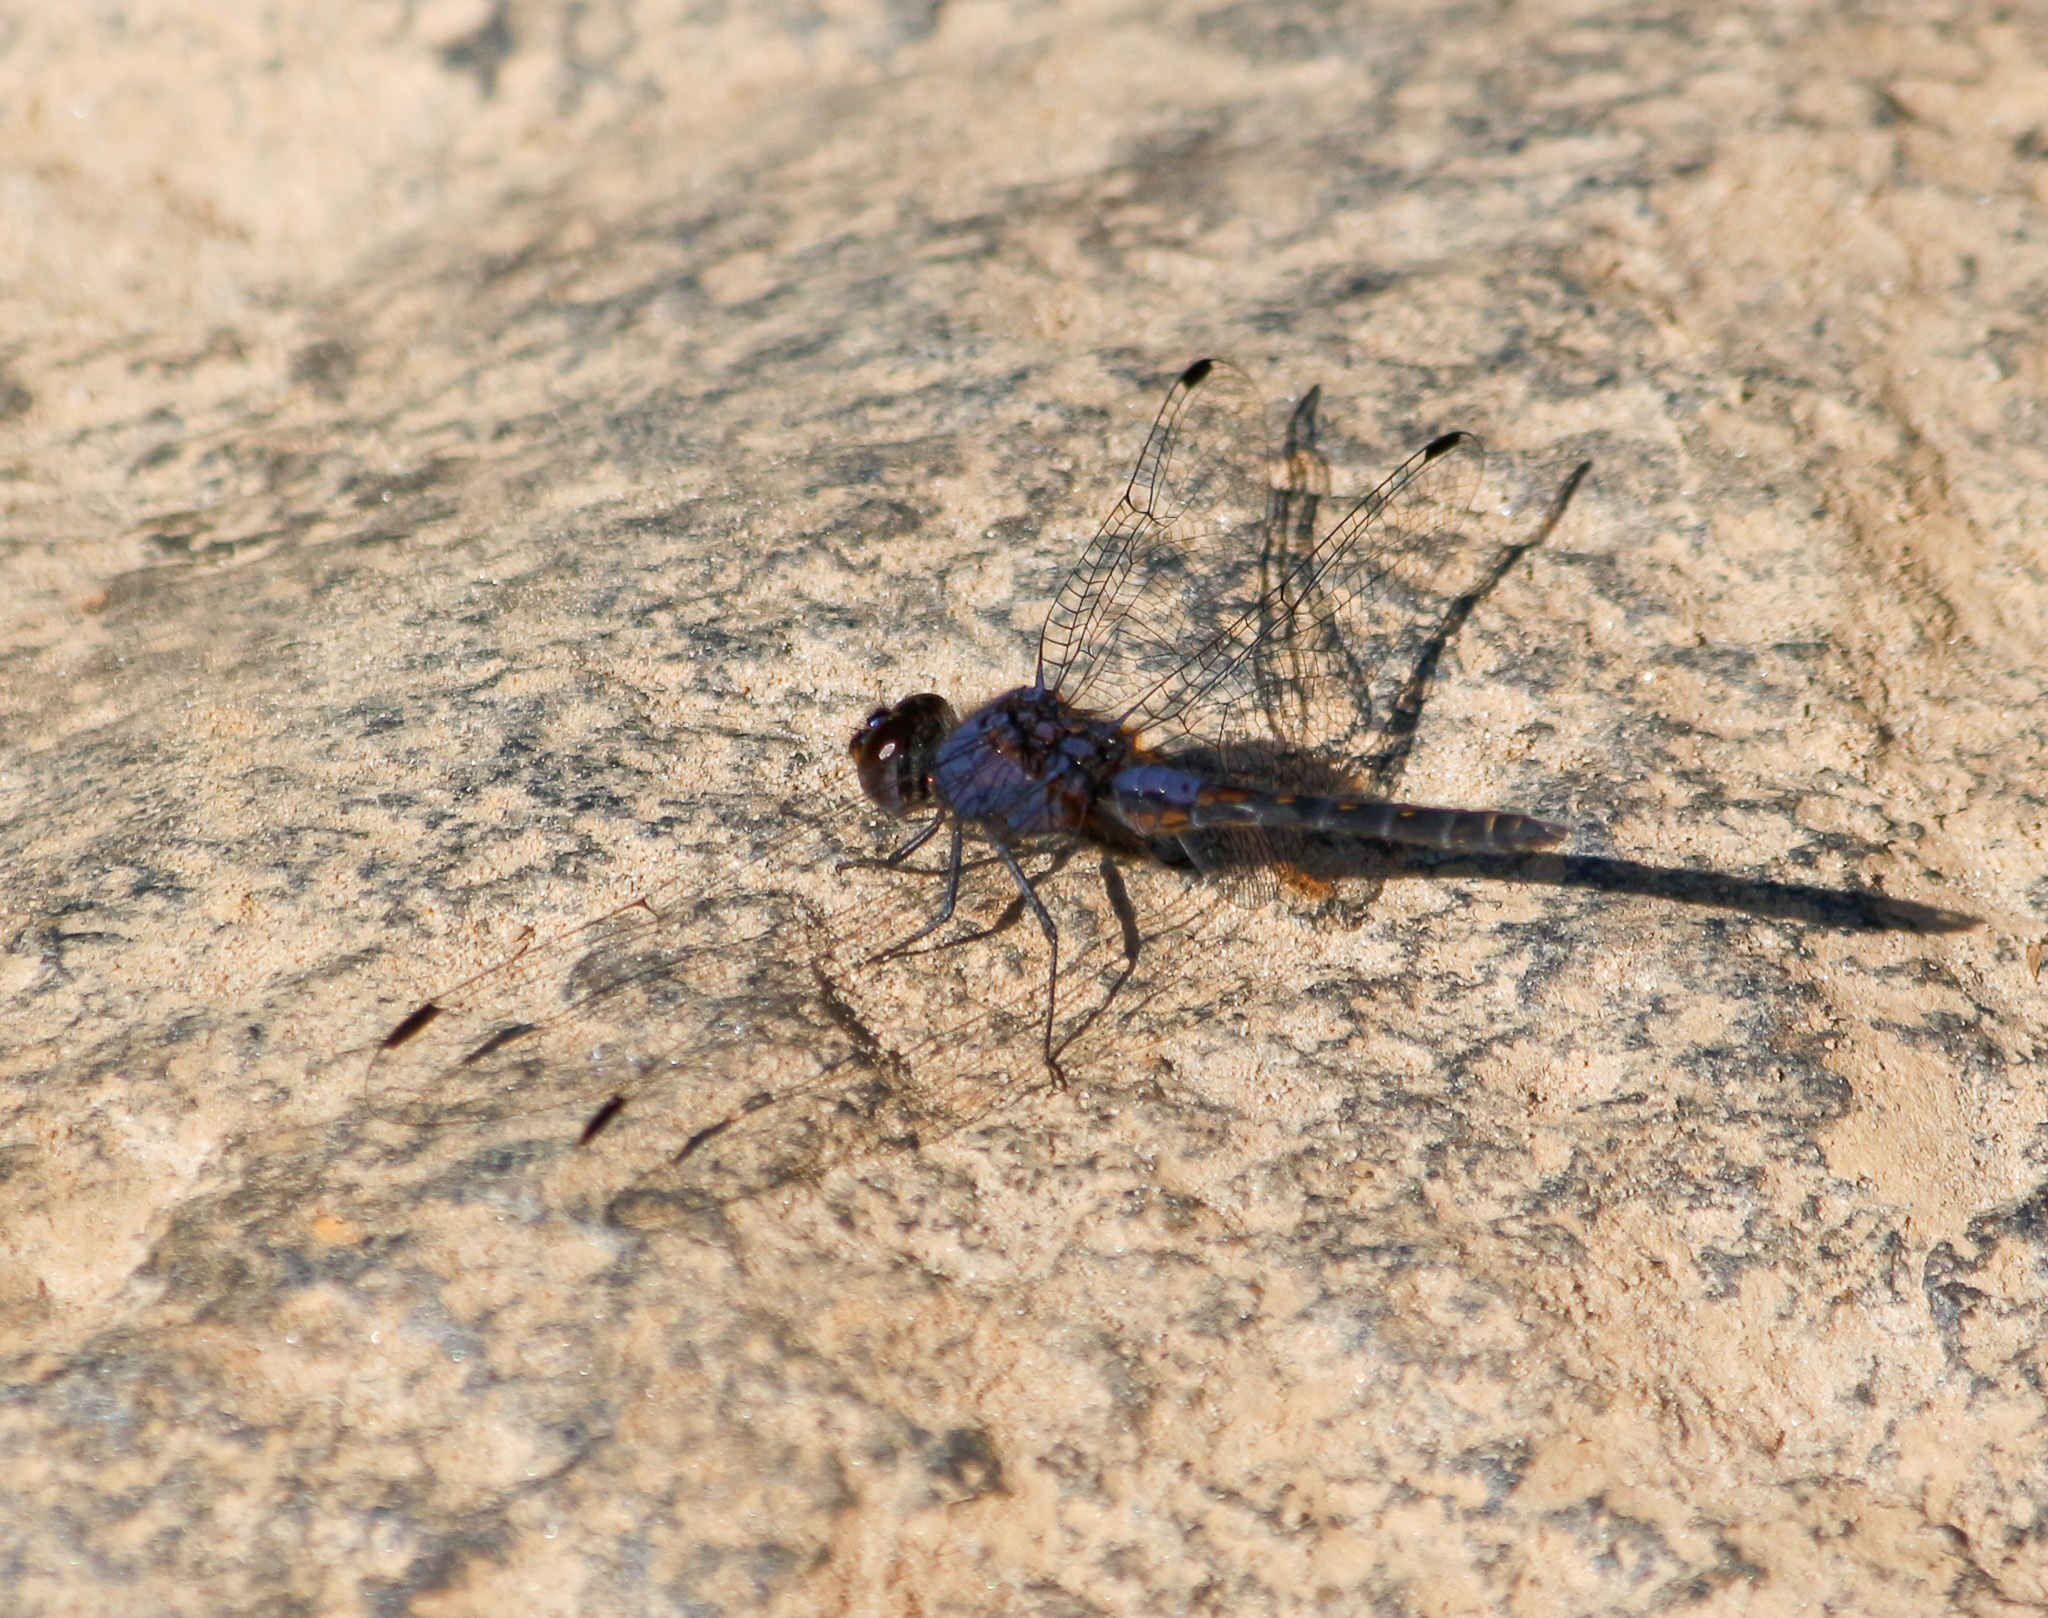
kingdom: Animalia
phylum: Arthropoda
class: Insecta
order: Odonata
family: Libellulidae
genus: Trithemis
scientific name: Trithemis festiva
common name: Indigo dropwing
